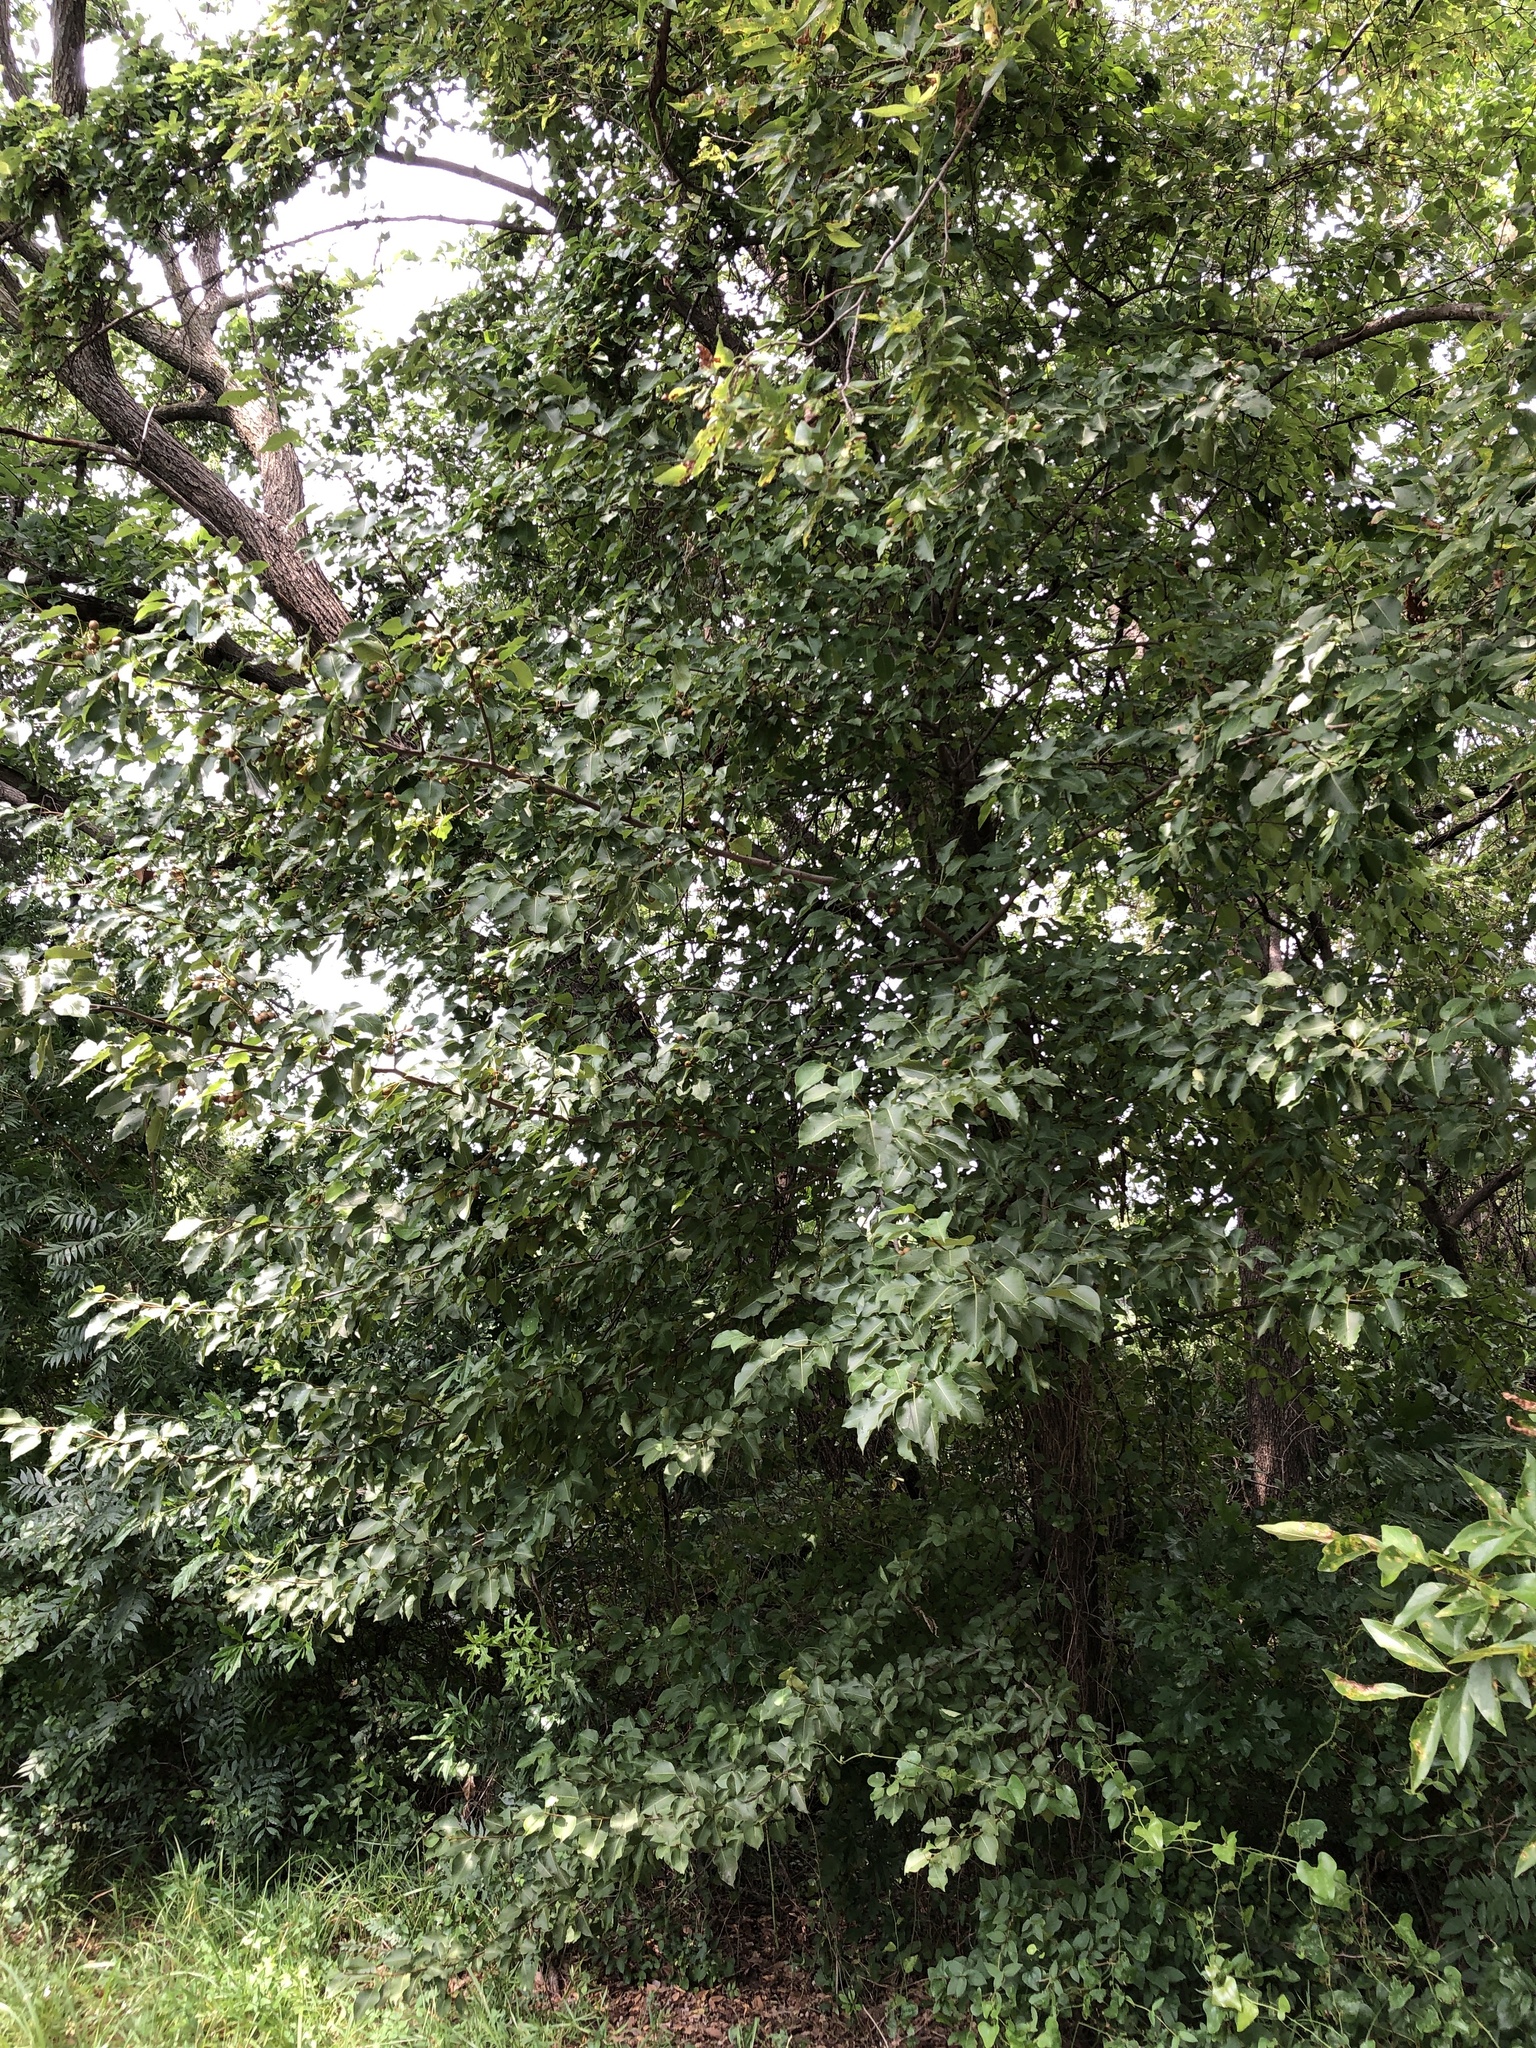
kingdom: Plantae
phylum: Tracheophyta
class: Magnoliopsida
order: Rosales
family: Rosaceae
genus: Pyrus
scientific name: Pyrus calleryana
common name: Callery pear
